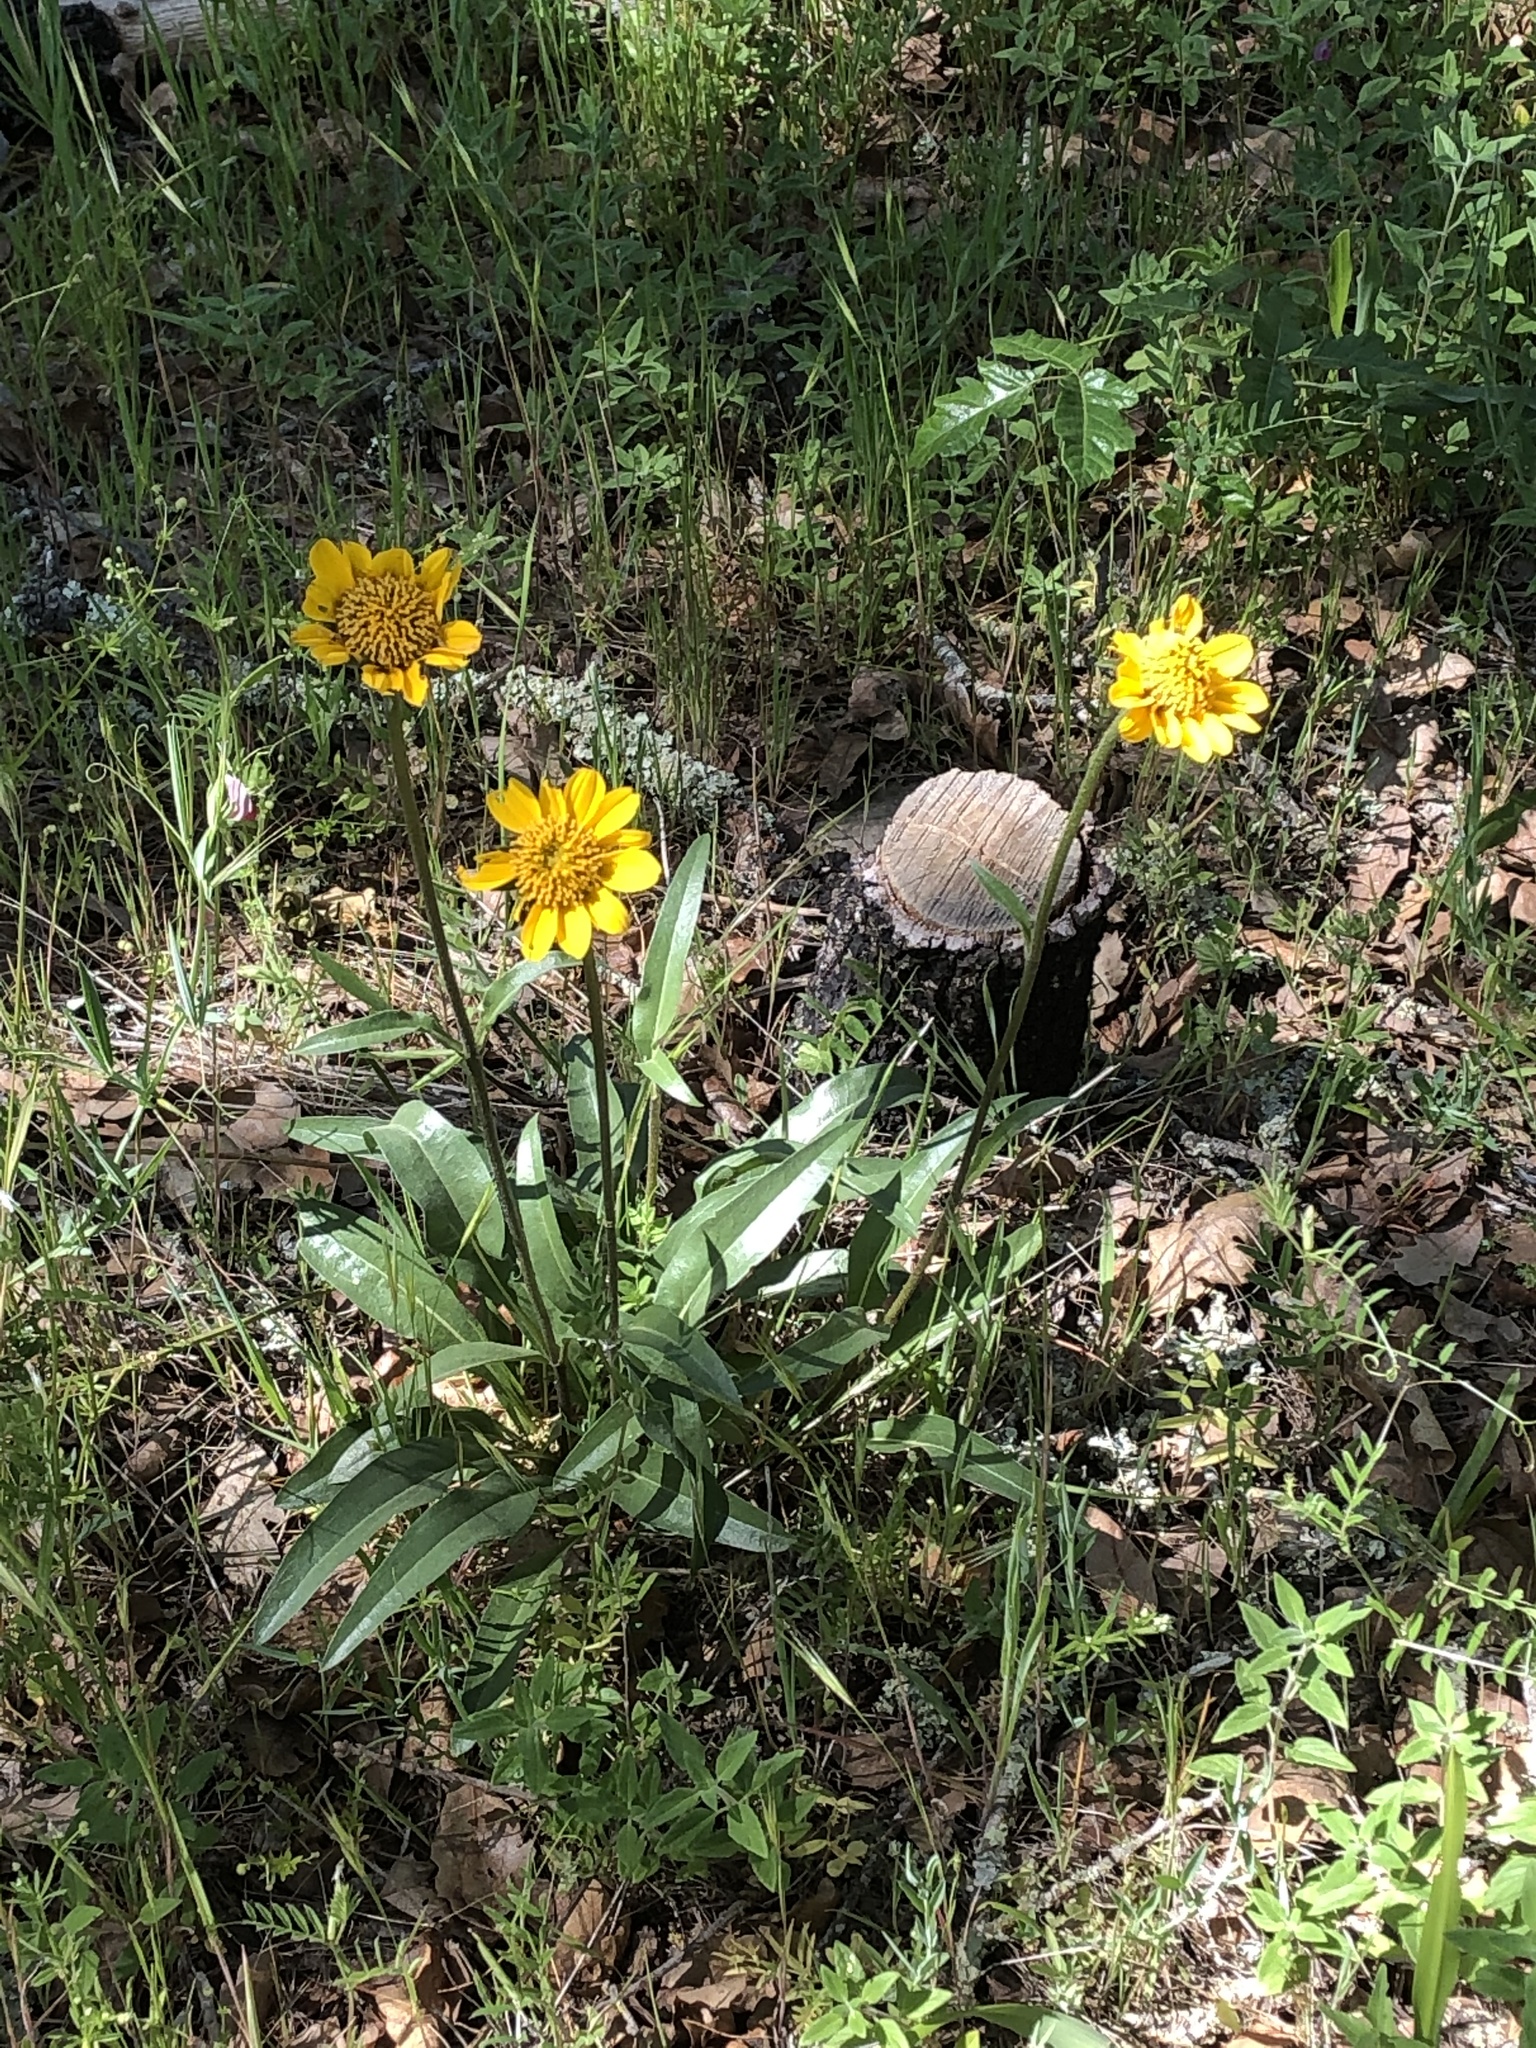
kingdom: Plantae
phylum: Tracheophyta
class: Magnoliopsida
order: Asterales
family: Asteraceae
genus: Helianthella
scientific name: Helianthella californica
